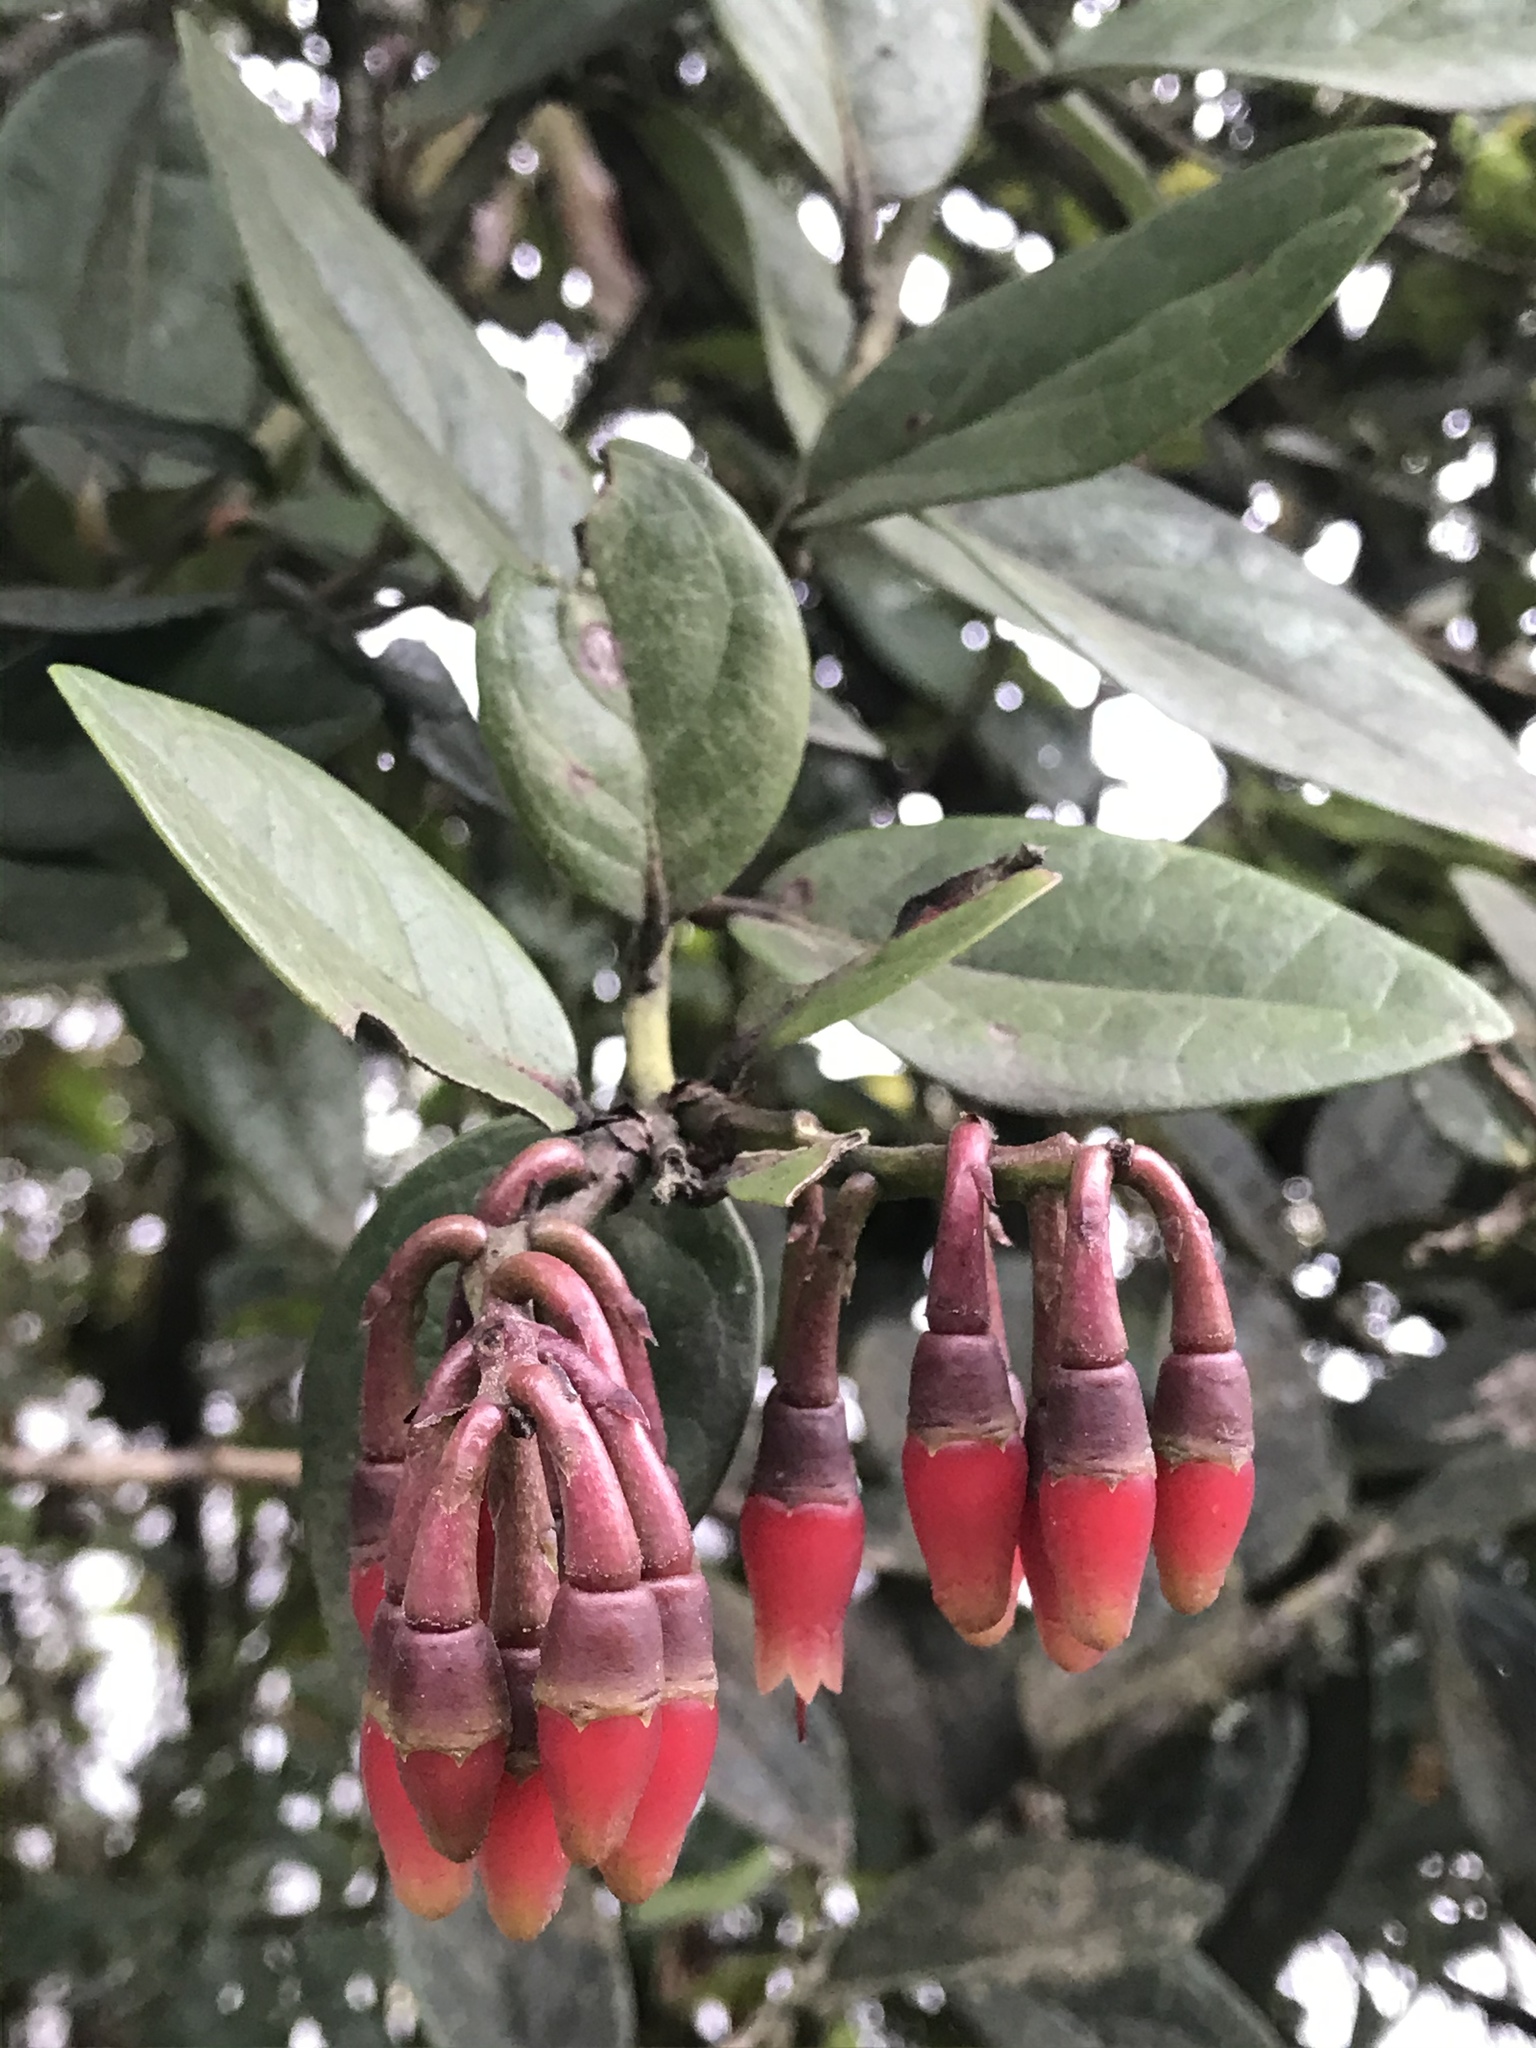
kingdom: Plantae
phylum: Tracheophyta
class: Magnoliopsida
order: Ericales
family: Ericaceae
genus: Macleania
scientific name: Macleania rupestris
